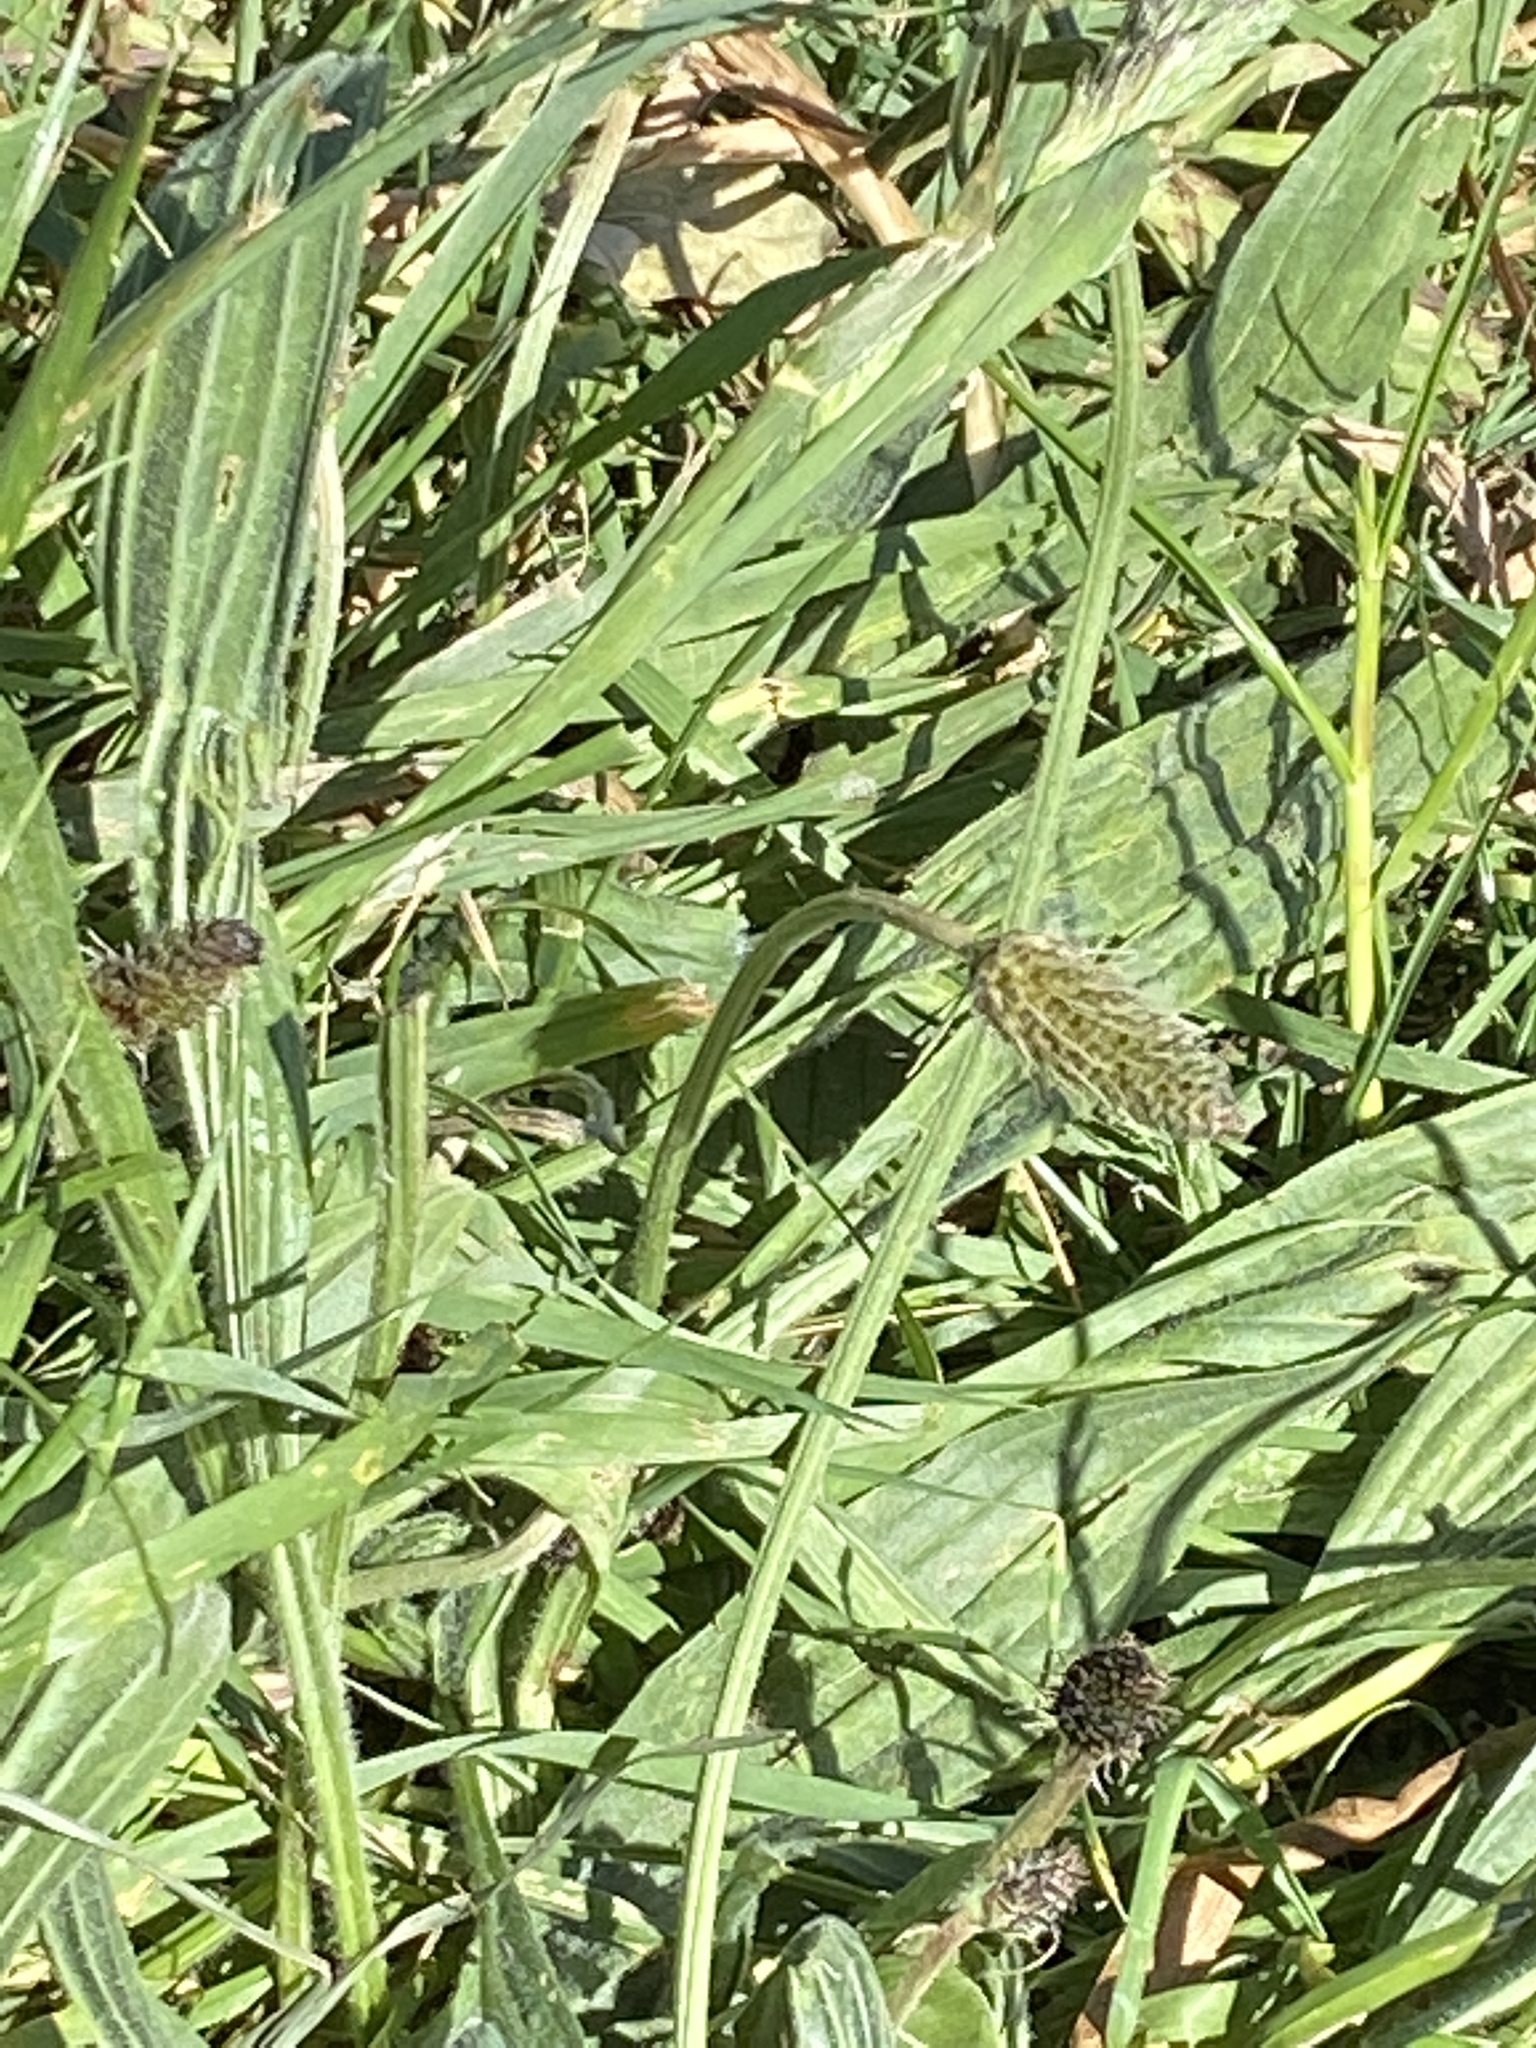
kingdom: Plantae
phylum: Tracheophyta
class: Magnoliopsida
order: Lamiales
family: Plantaginaceae
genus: Plantago
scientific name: Plantago lanceolata
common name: Ribwort plantain
